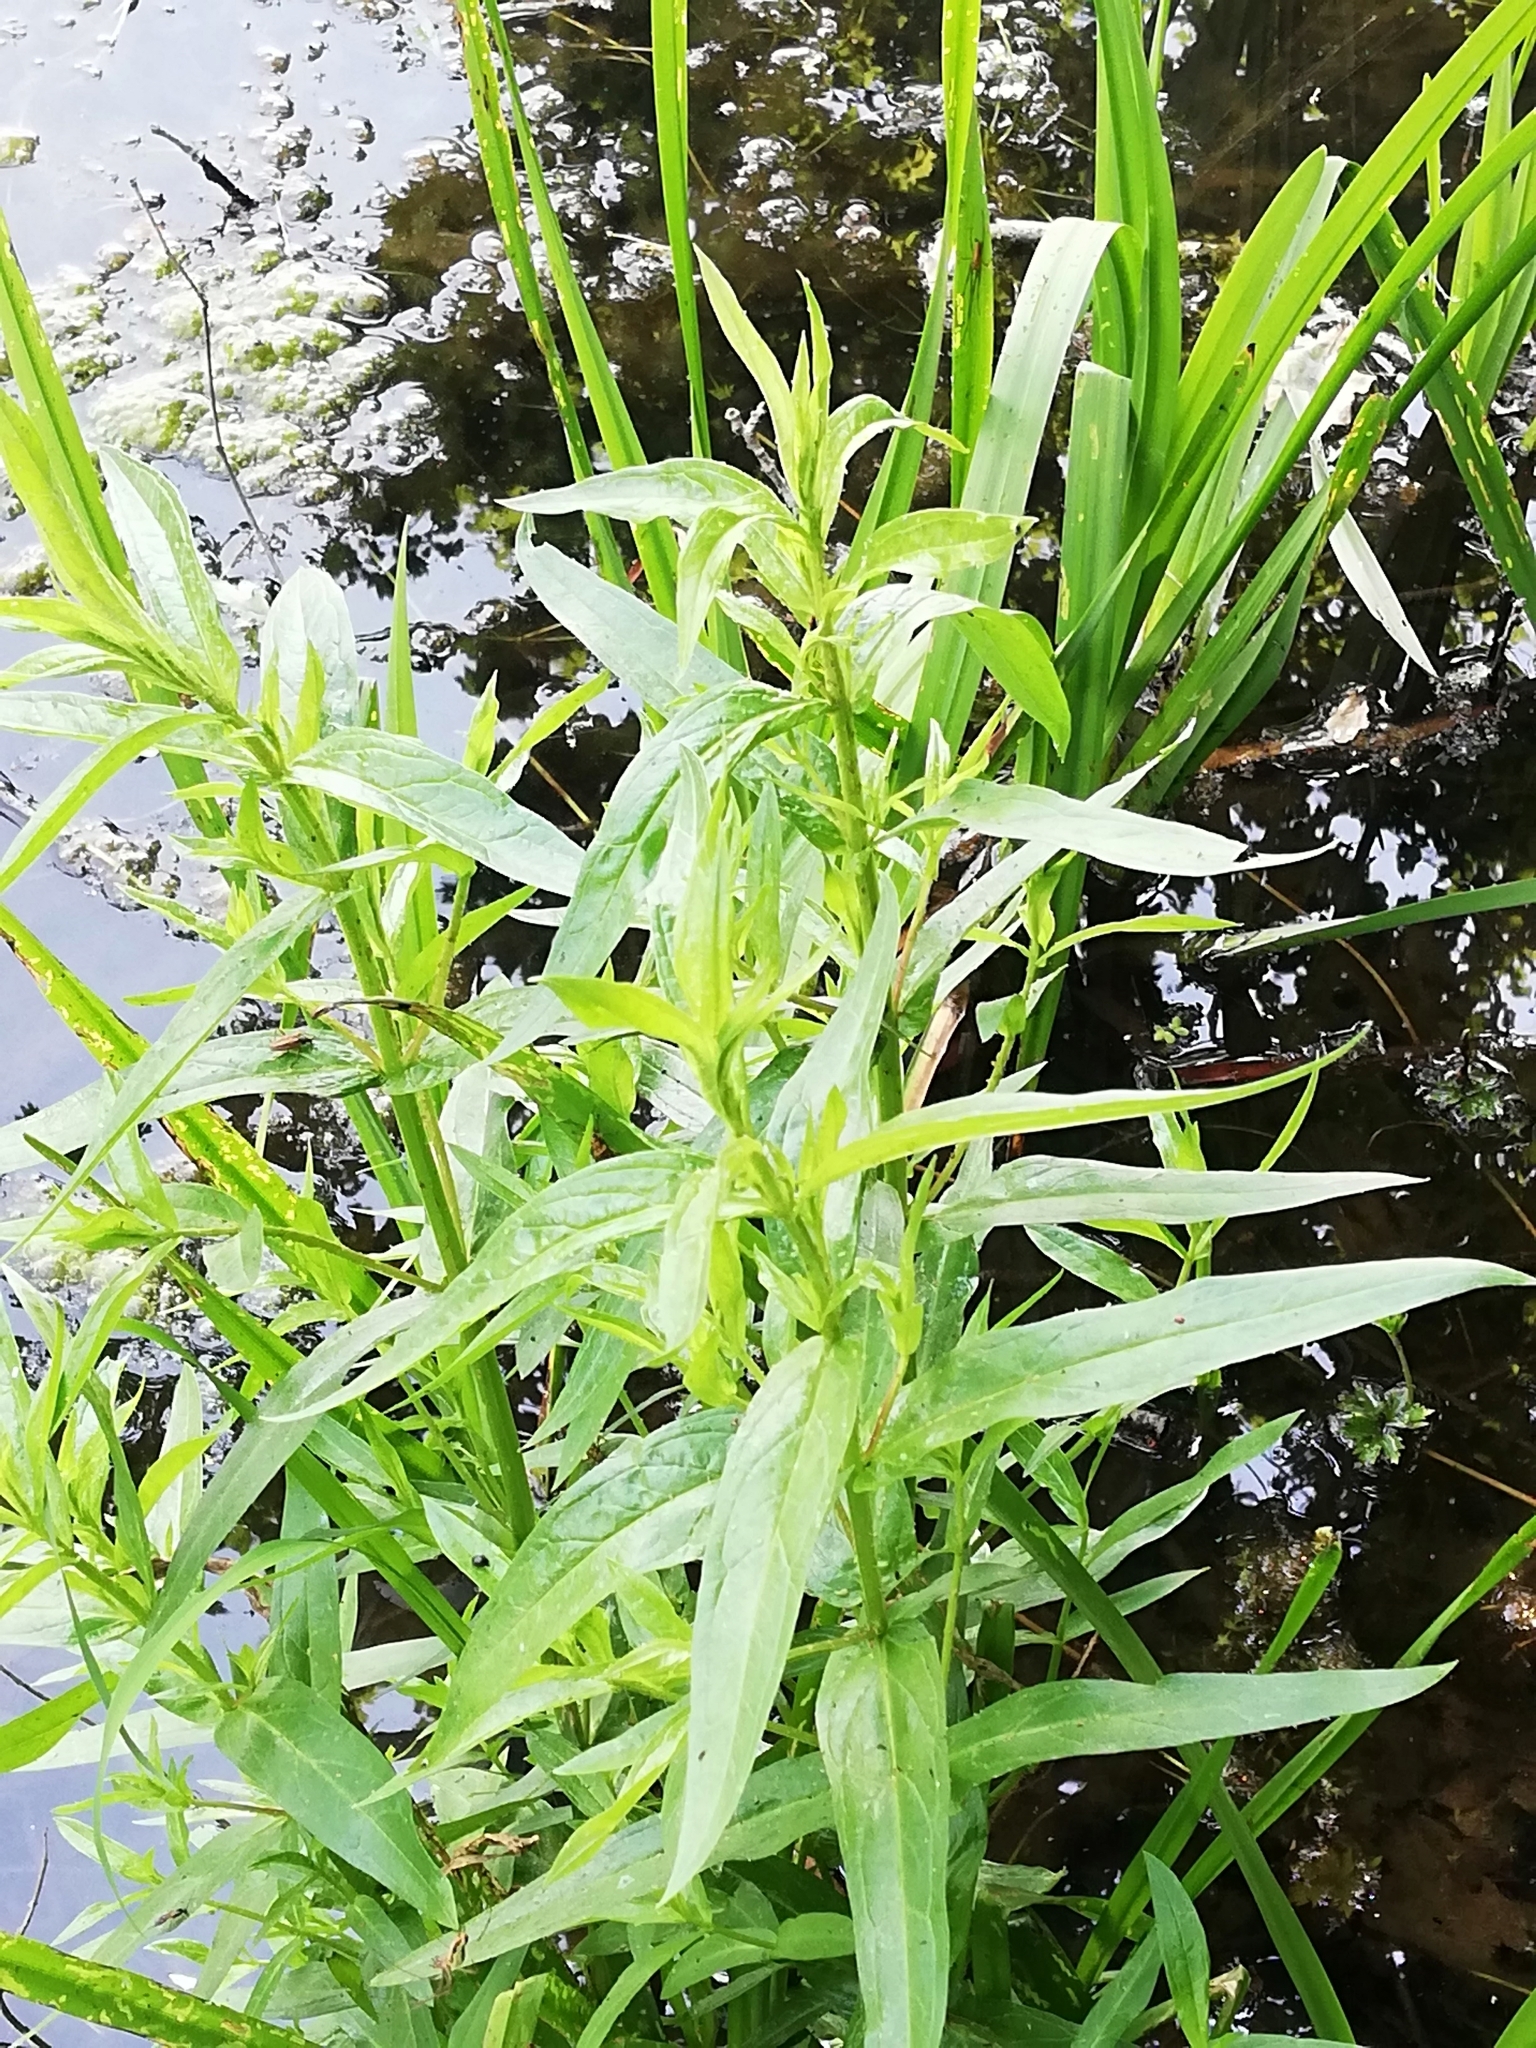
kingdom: Plantae
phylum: Tracheophyta
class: Magnoliopsida
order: Myrtales
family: Lythraceae
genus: Lythrum
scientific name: Lythrum salicaria
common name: Purple loosestrife
